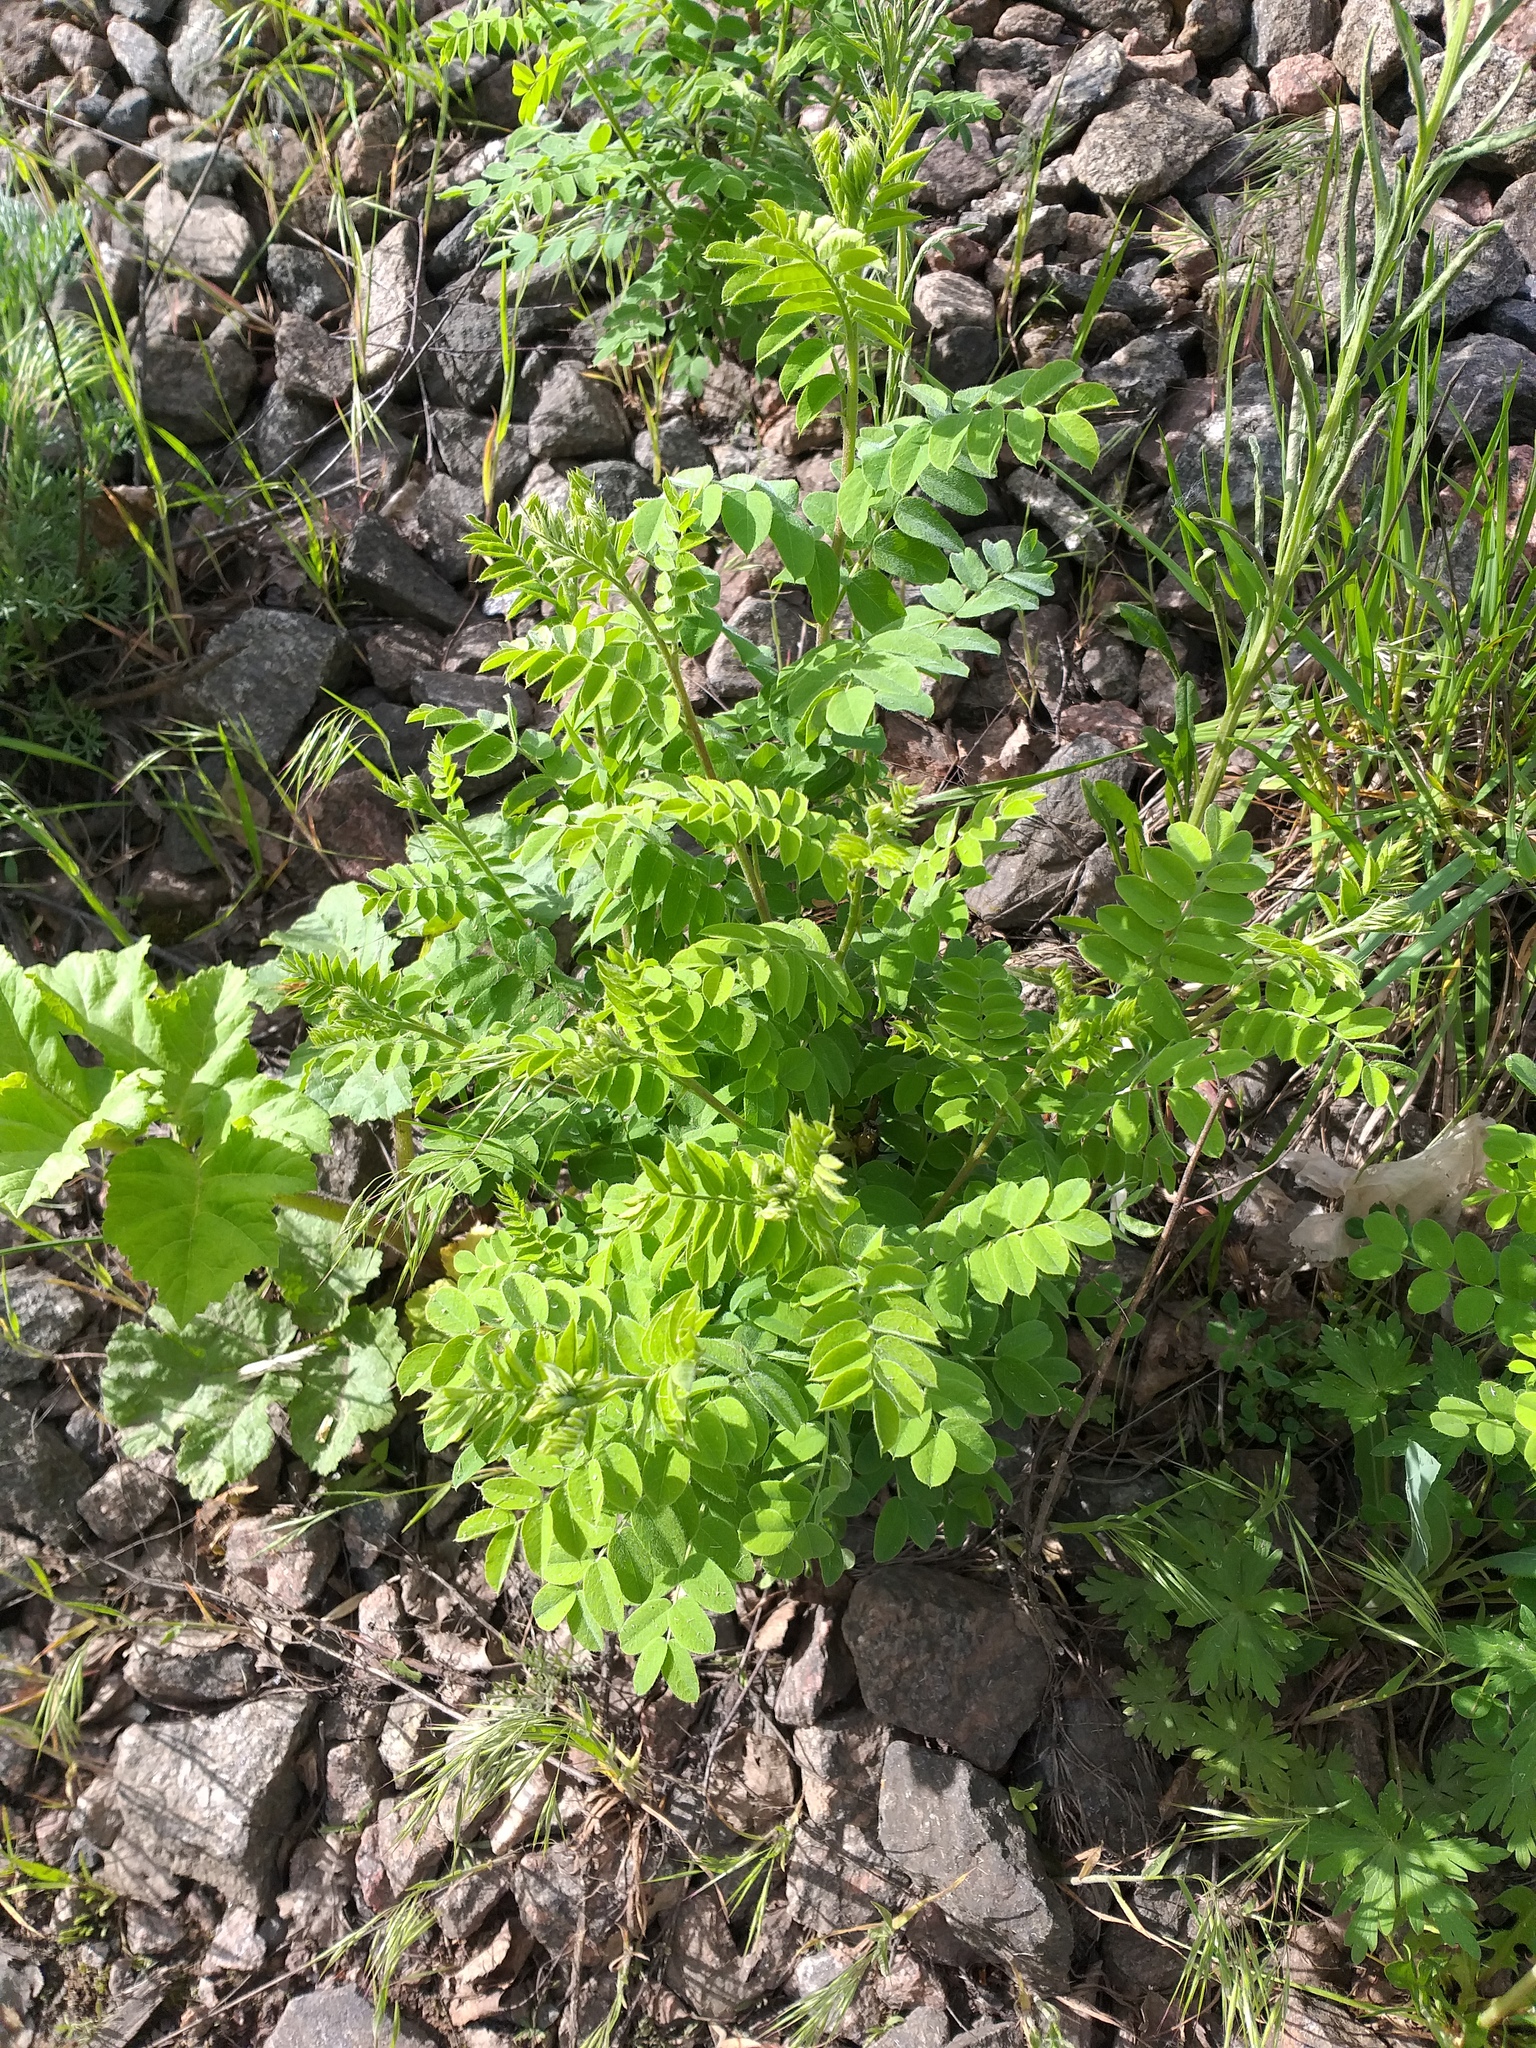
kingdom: Plantae
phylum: Tracheophyta
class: Magnoliopsida
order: Fabales
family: Fabaceae
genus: Caragana
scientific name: Caragana arborescens
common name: Siberian peashrub
